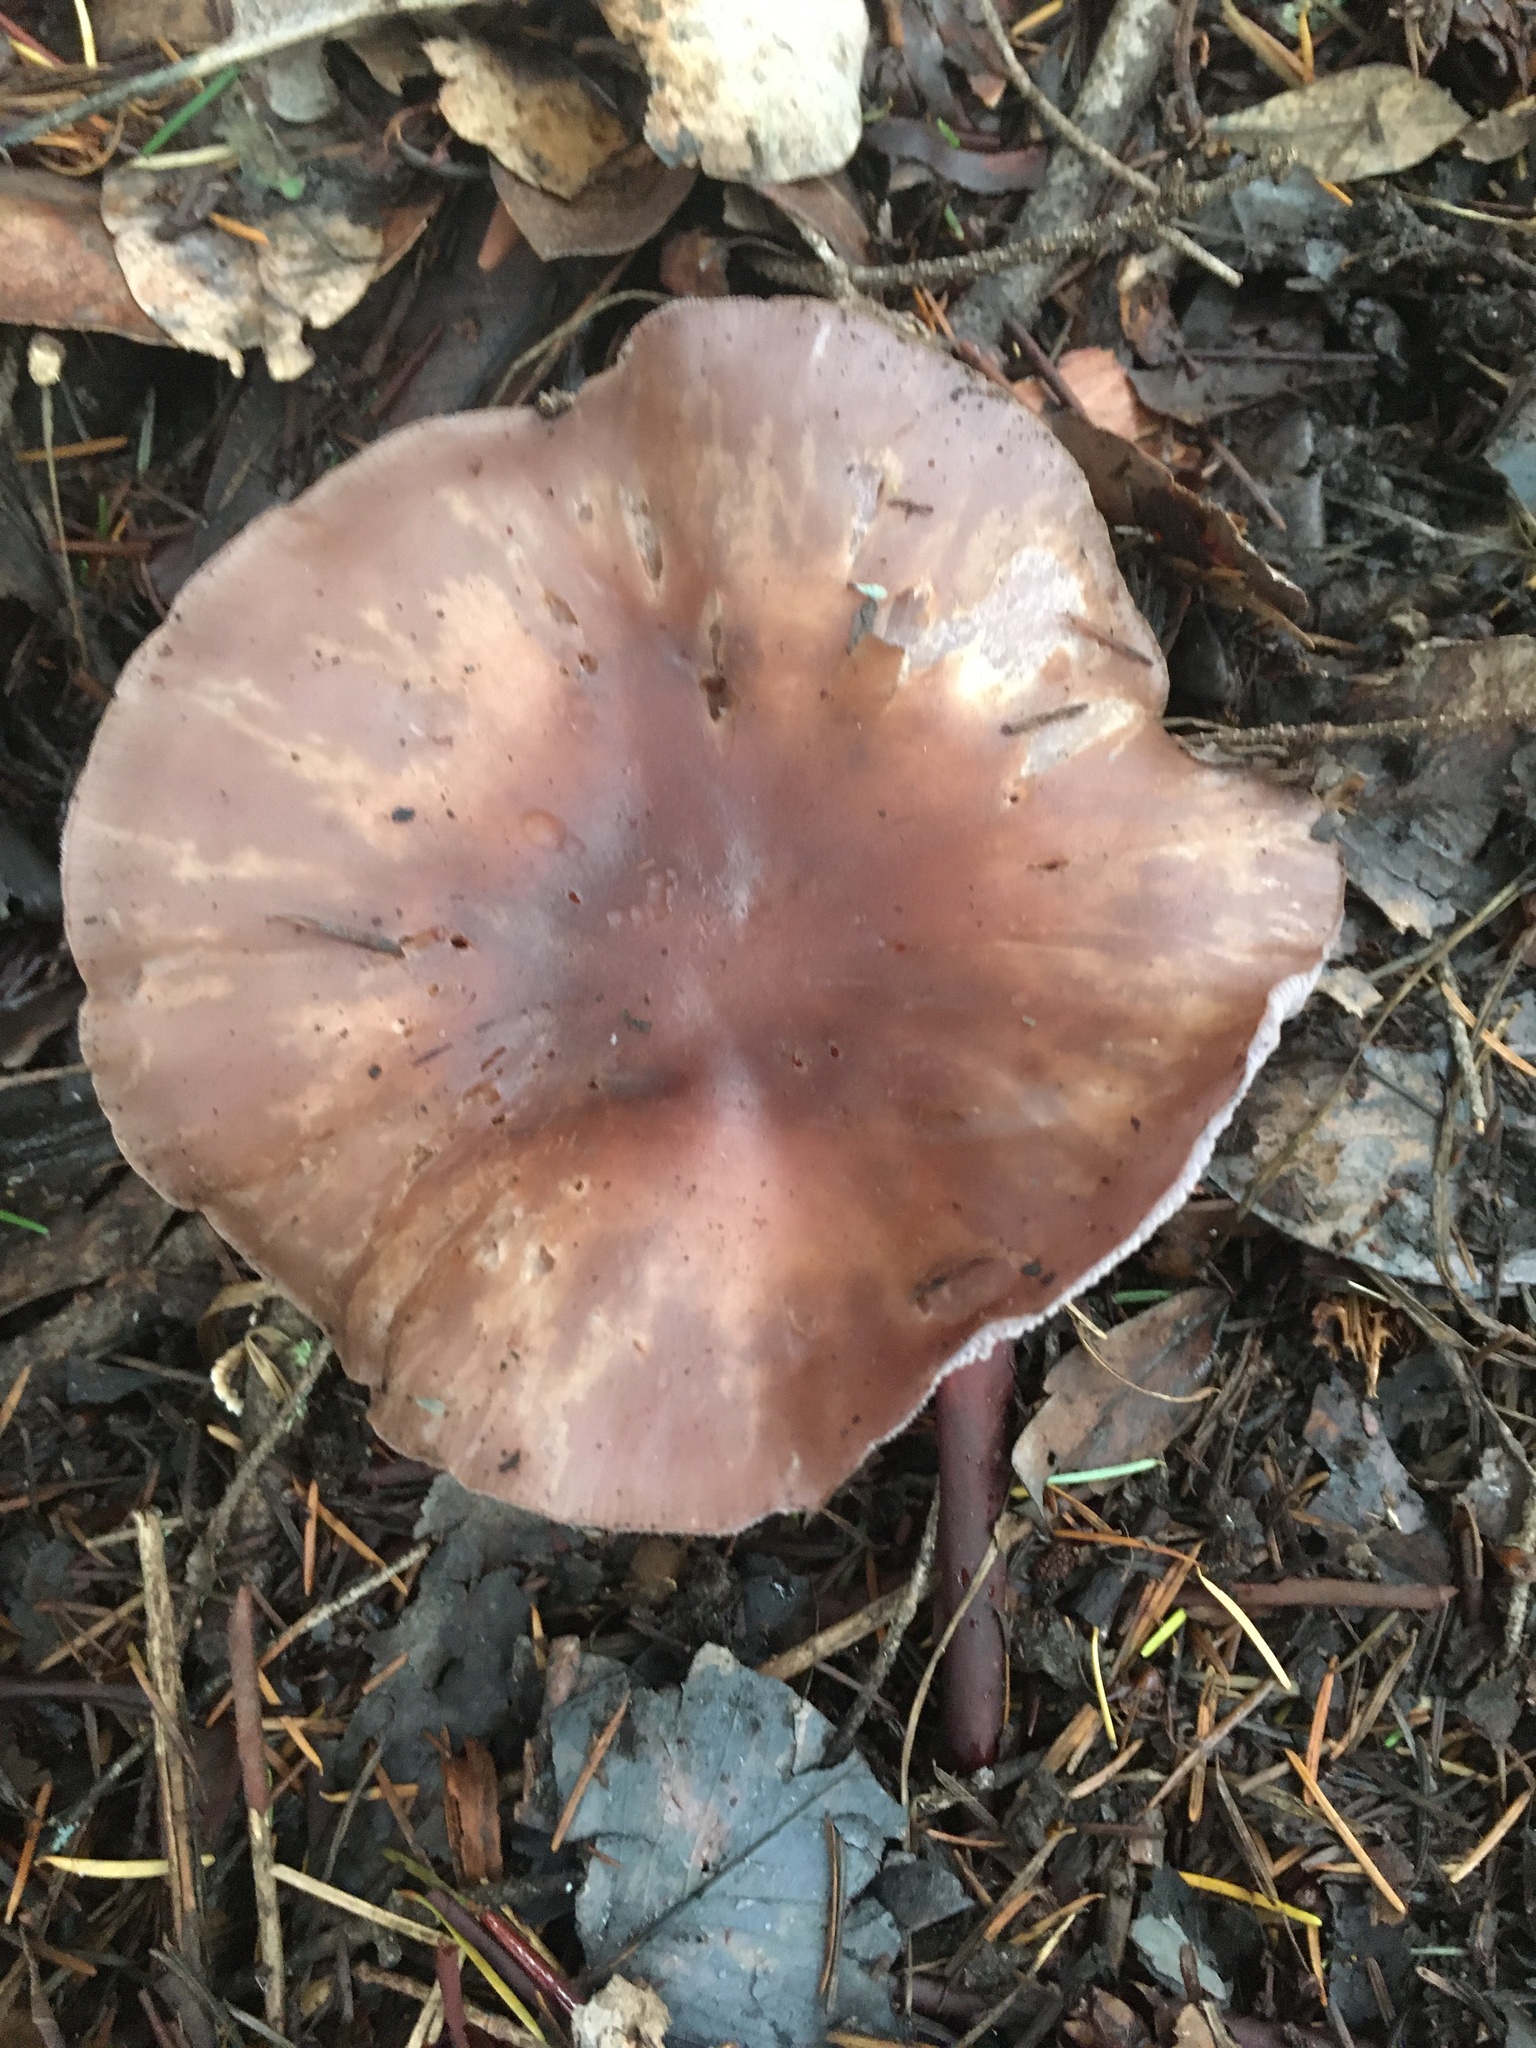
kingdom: Fungi
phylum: Basidiomycota
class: Agaricomycetes
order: Agaricales
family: Tricholomataceae
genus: Collybia
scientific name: Collybia
